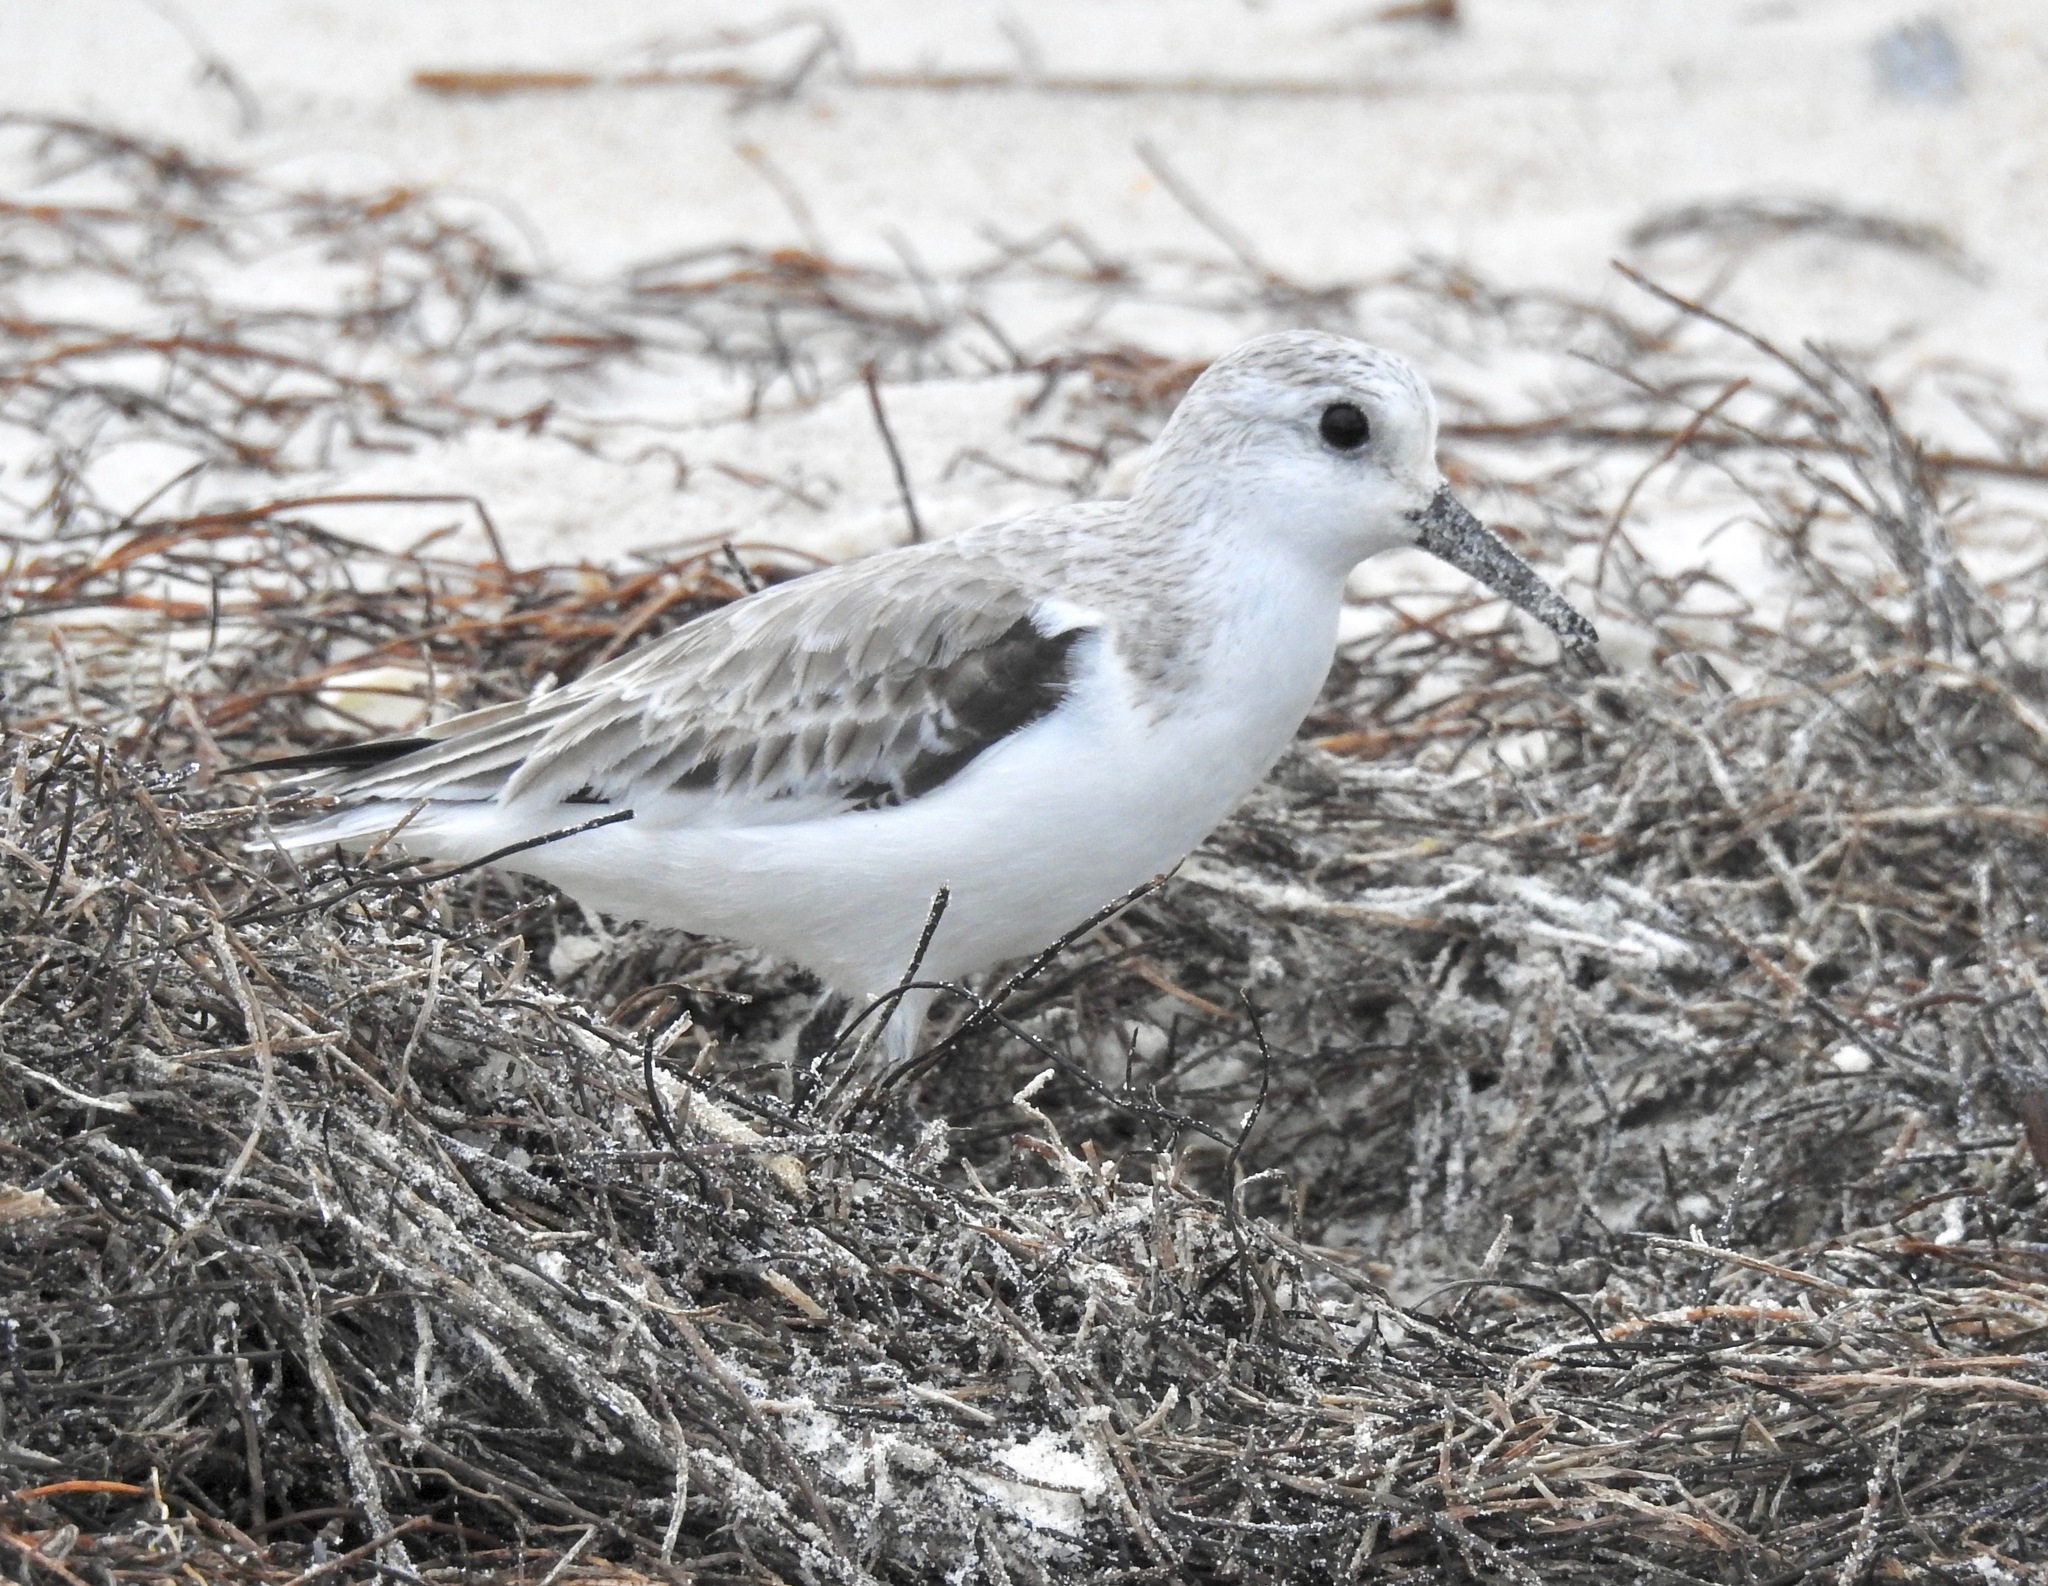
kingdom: Animalia
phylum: Chordata
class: Aves
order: Charadriiformes
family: Scolopacidae
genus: Calidris
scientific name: Calidris alba
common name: Sanderling
